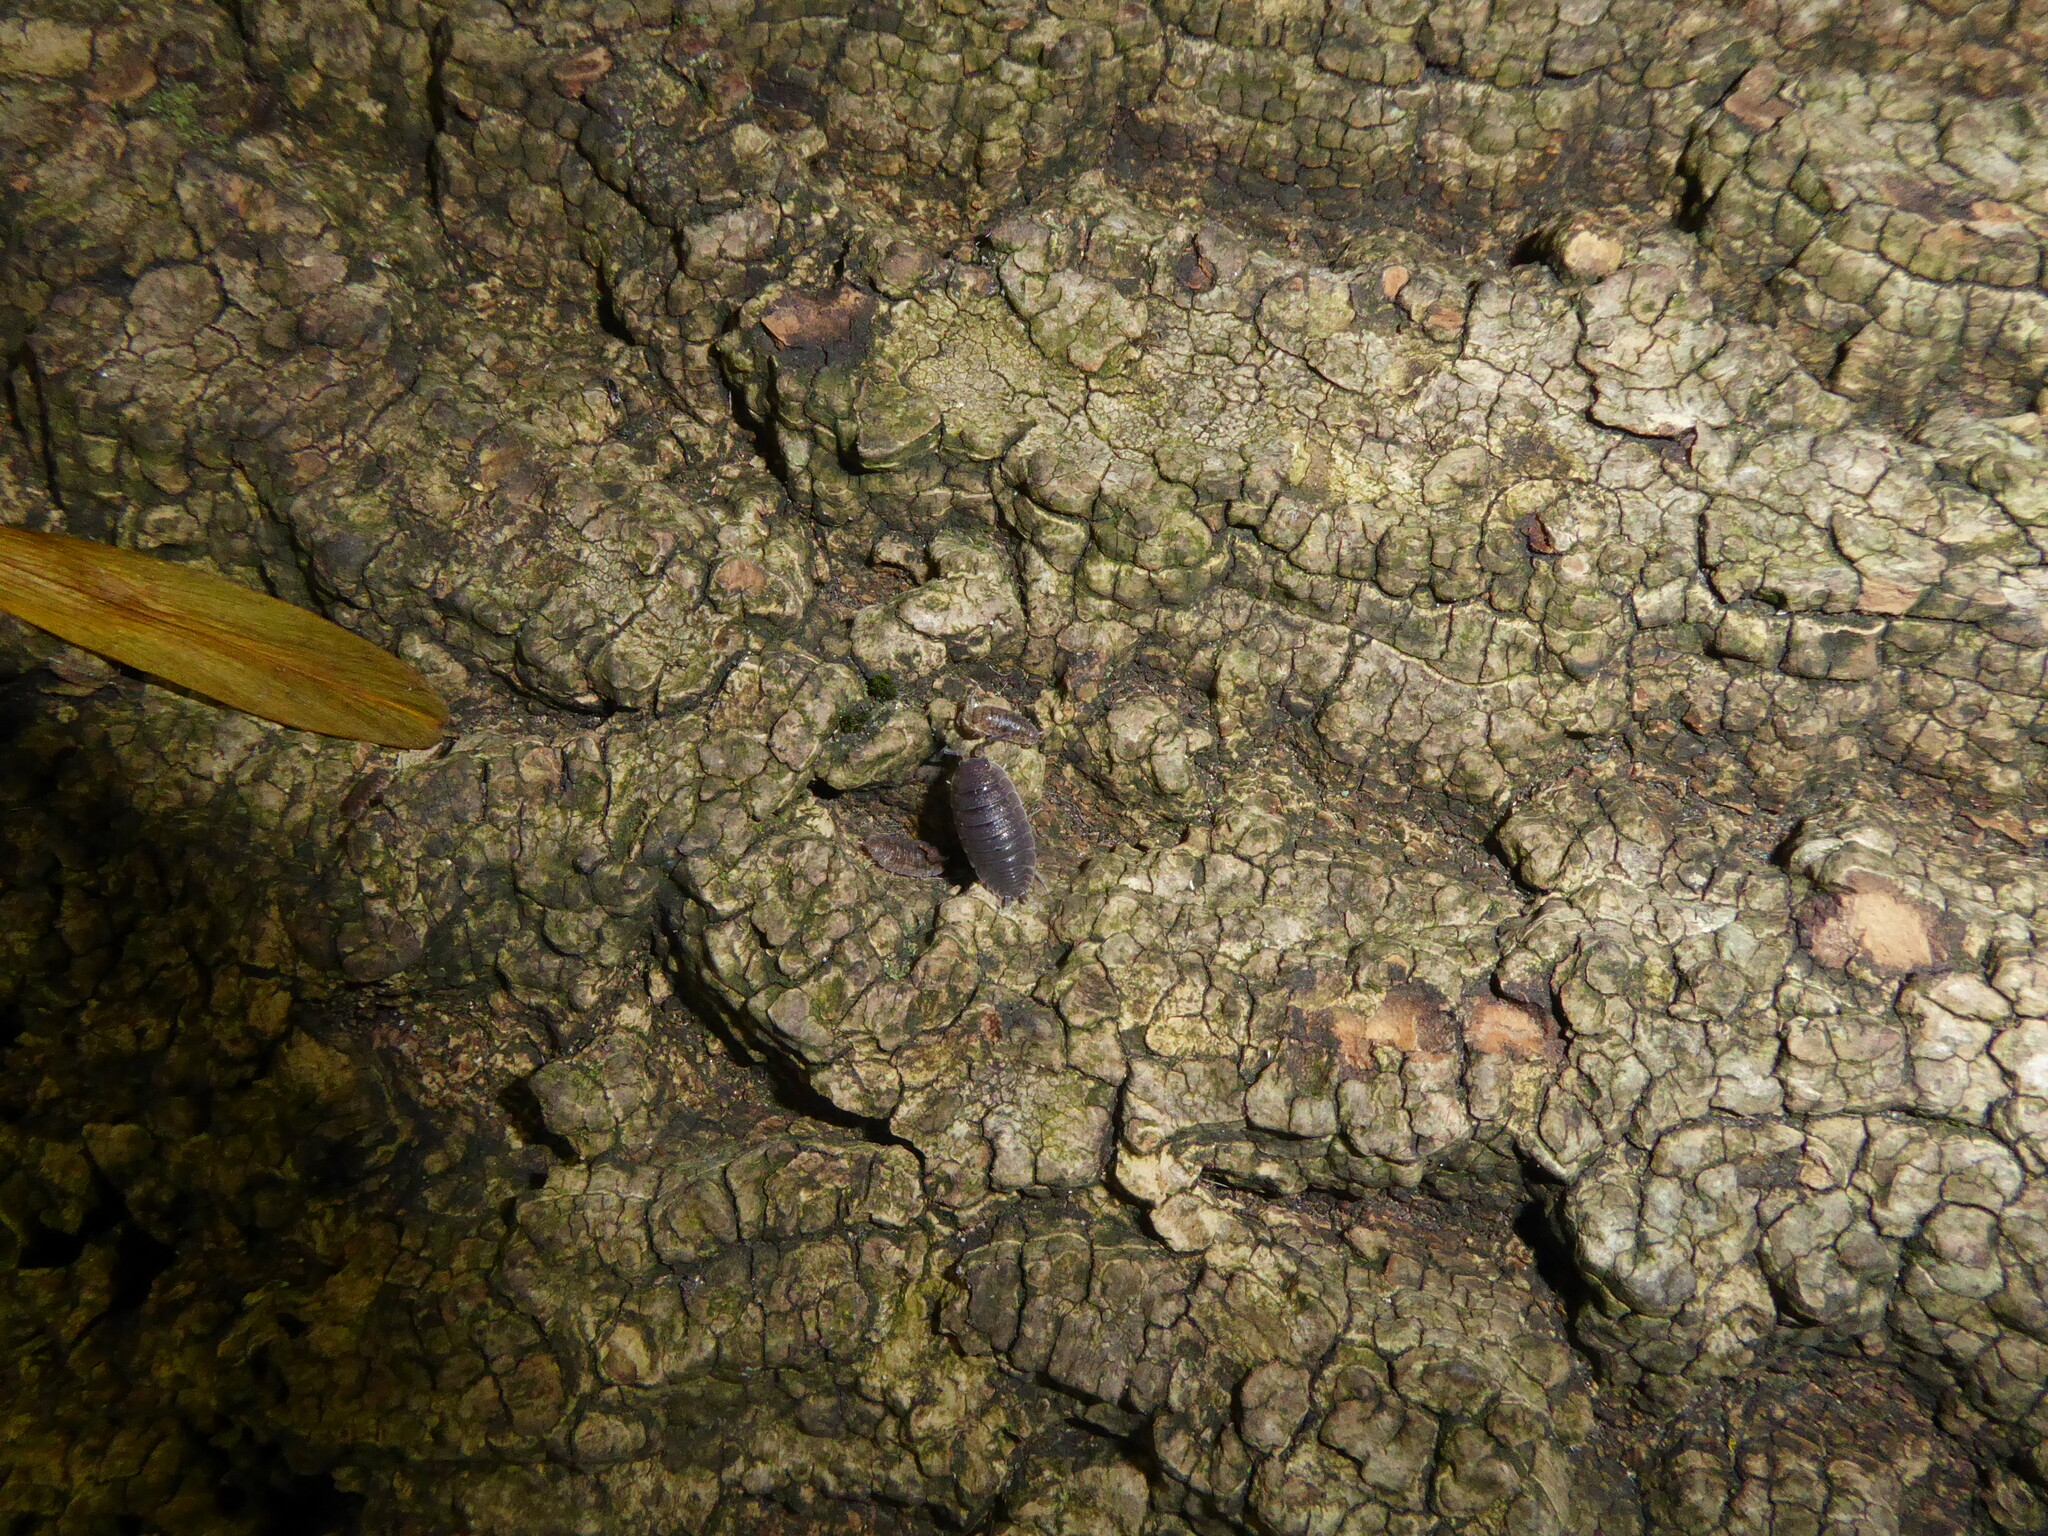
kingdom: Animalia
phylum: Arthropoda
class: Malacostraca
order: Isopoda
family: Porcellionidae
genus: Porcellio
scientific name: Porcellio scaber
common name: Common rough woodlouse
